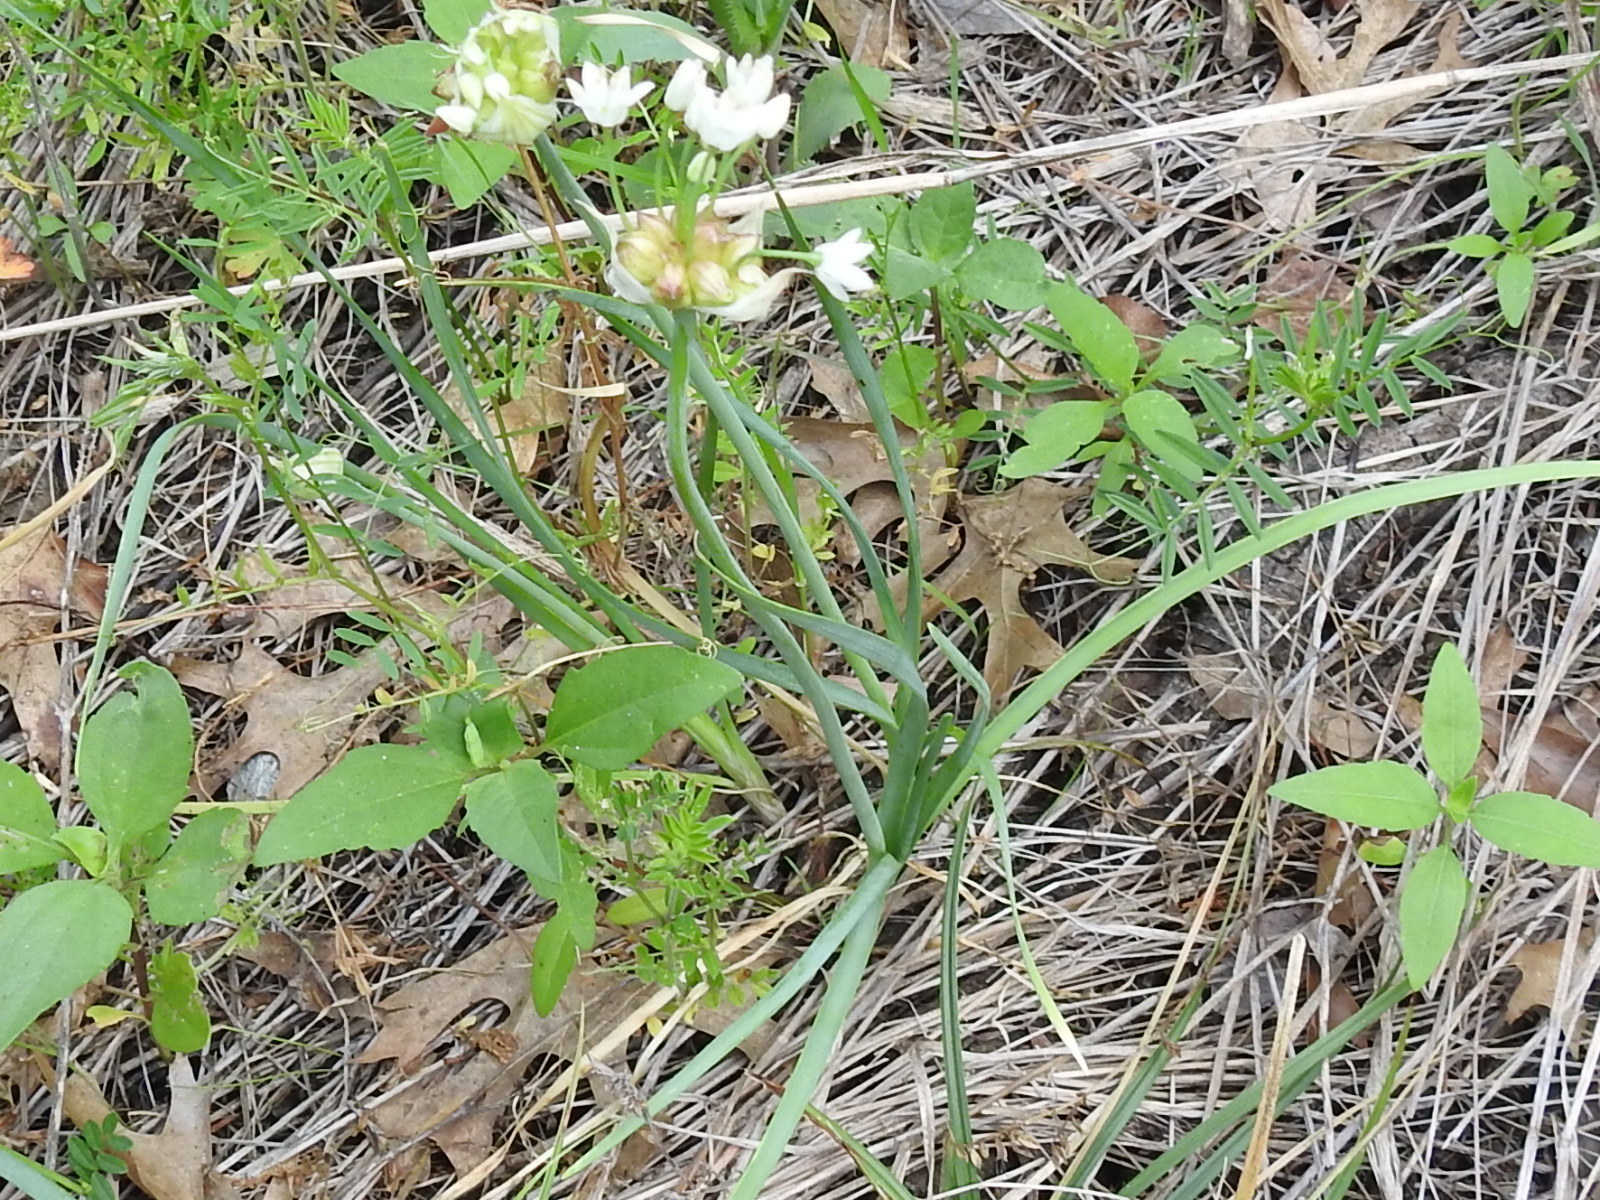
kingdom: Plantae
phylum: Tracheophyta
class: Liliopsida
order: Asparagales
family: Amaryllidaceae
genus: Allium
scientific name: Allium canadense
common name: Meadow garlic
